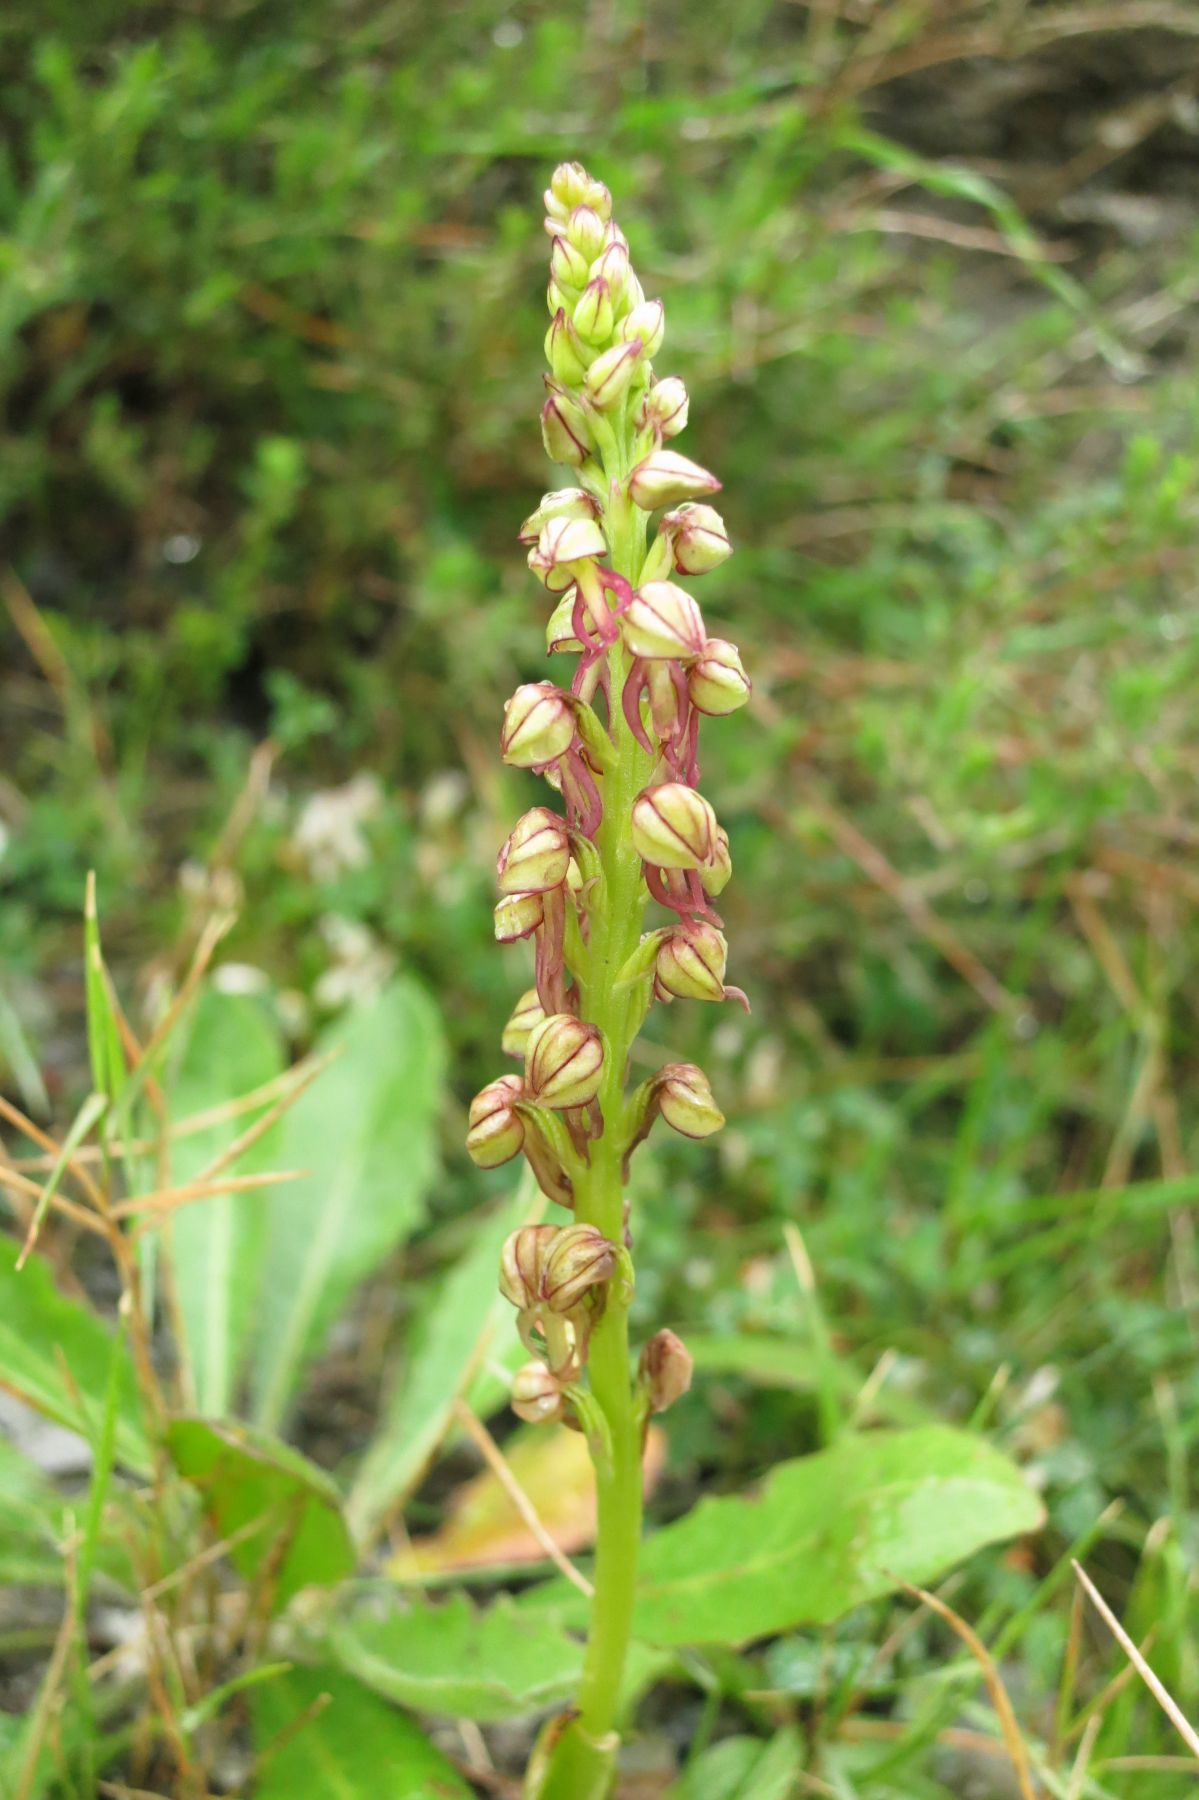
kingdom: Plantae
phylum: Tracheophyta
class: Liliopsida
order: Asparagales
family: Orchidaceae
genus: Orchis
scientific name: Orchis anthropophora
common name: Man orchid
